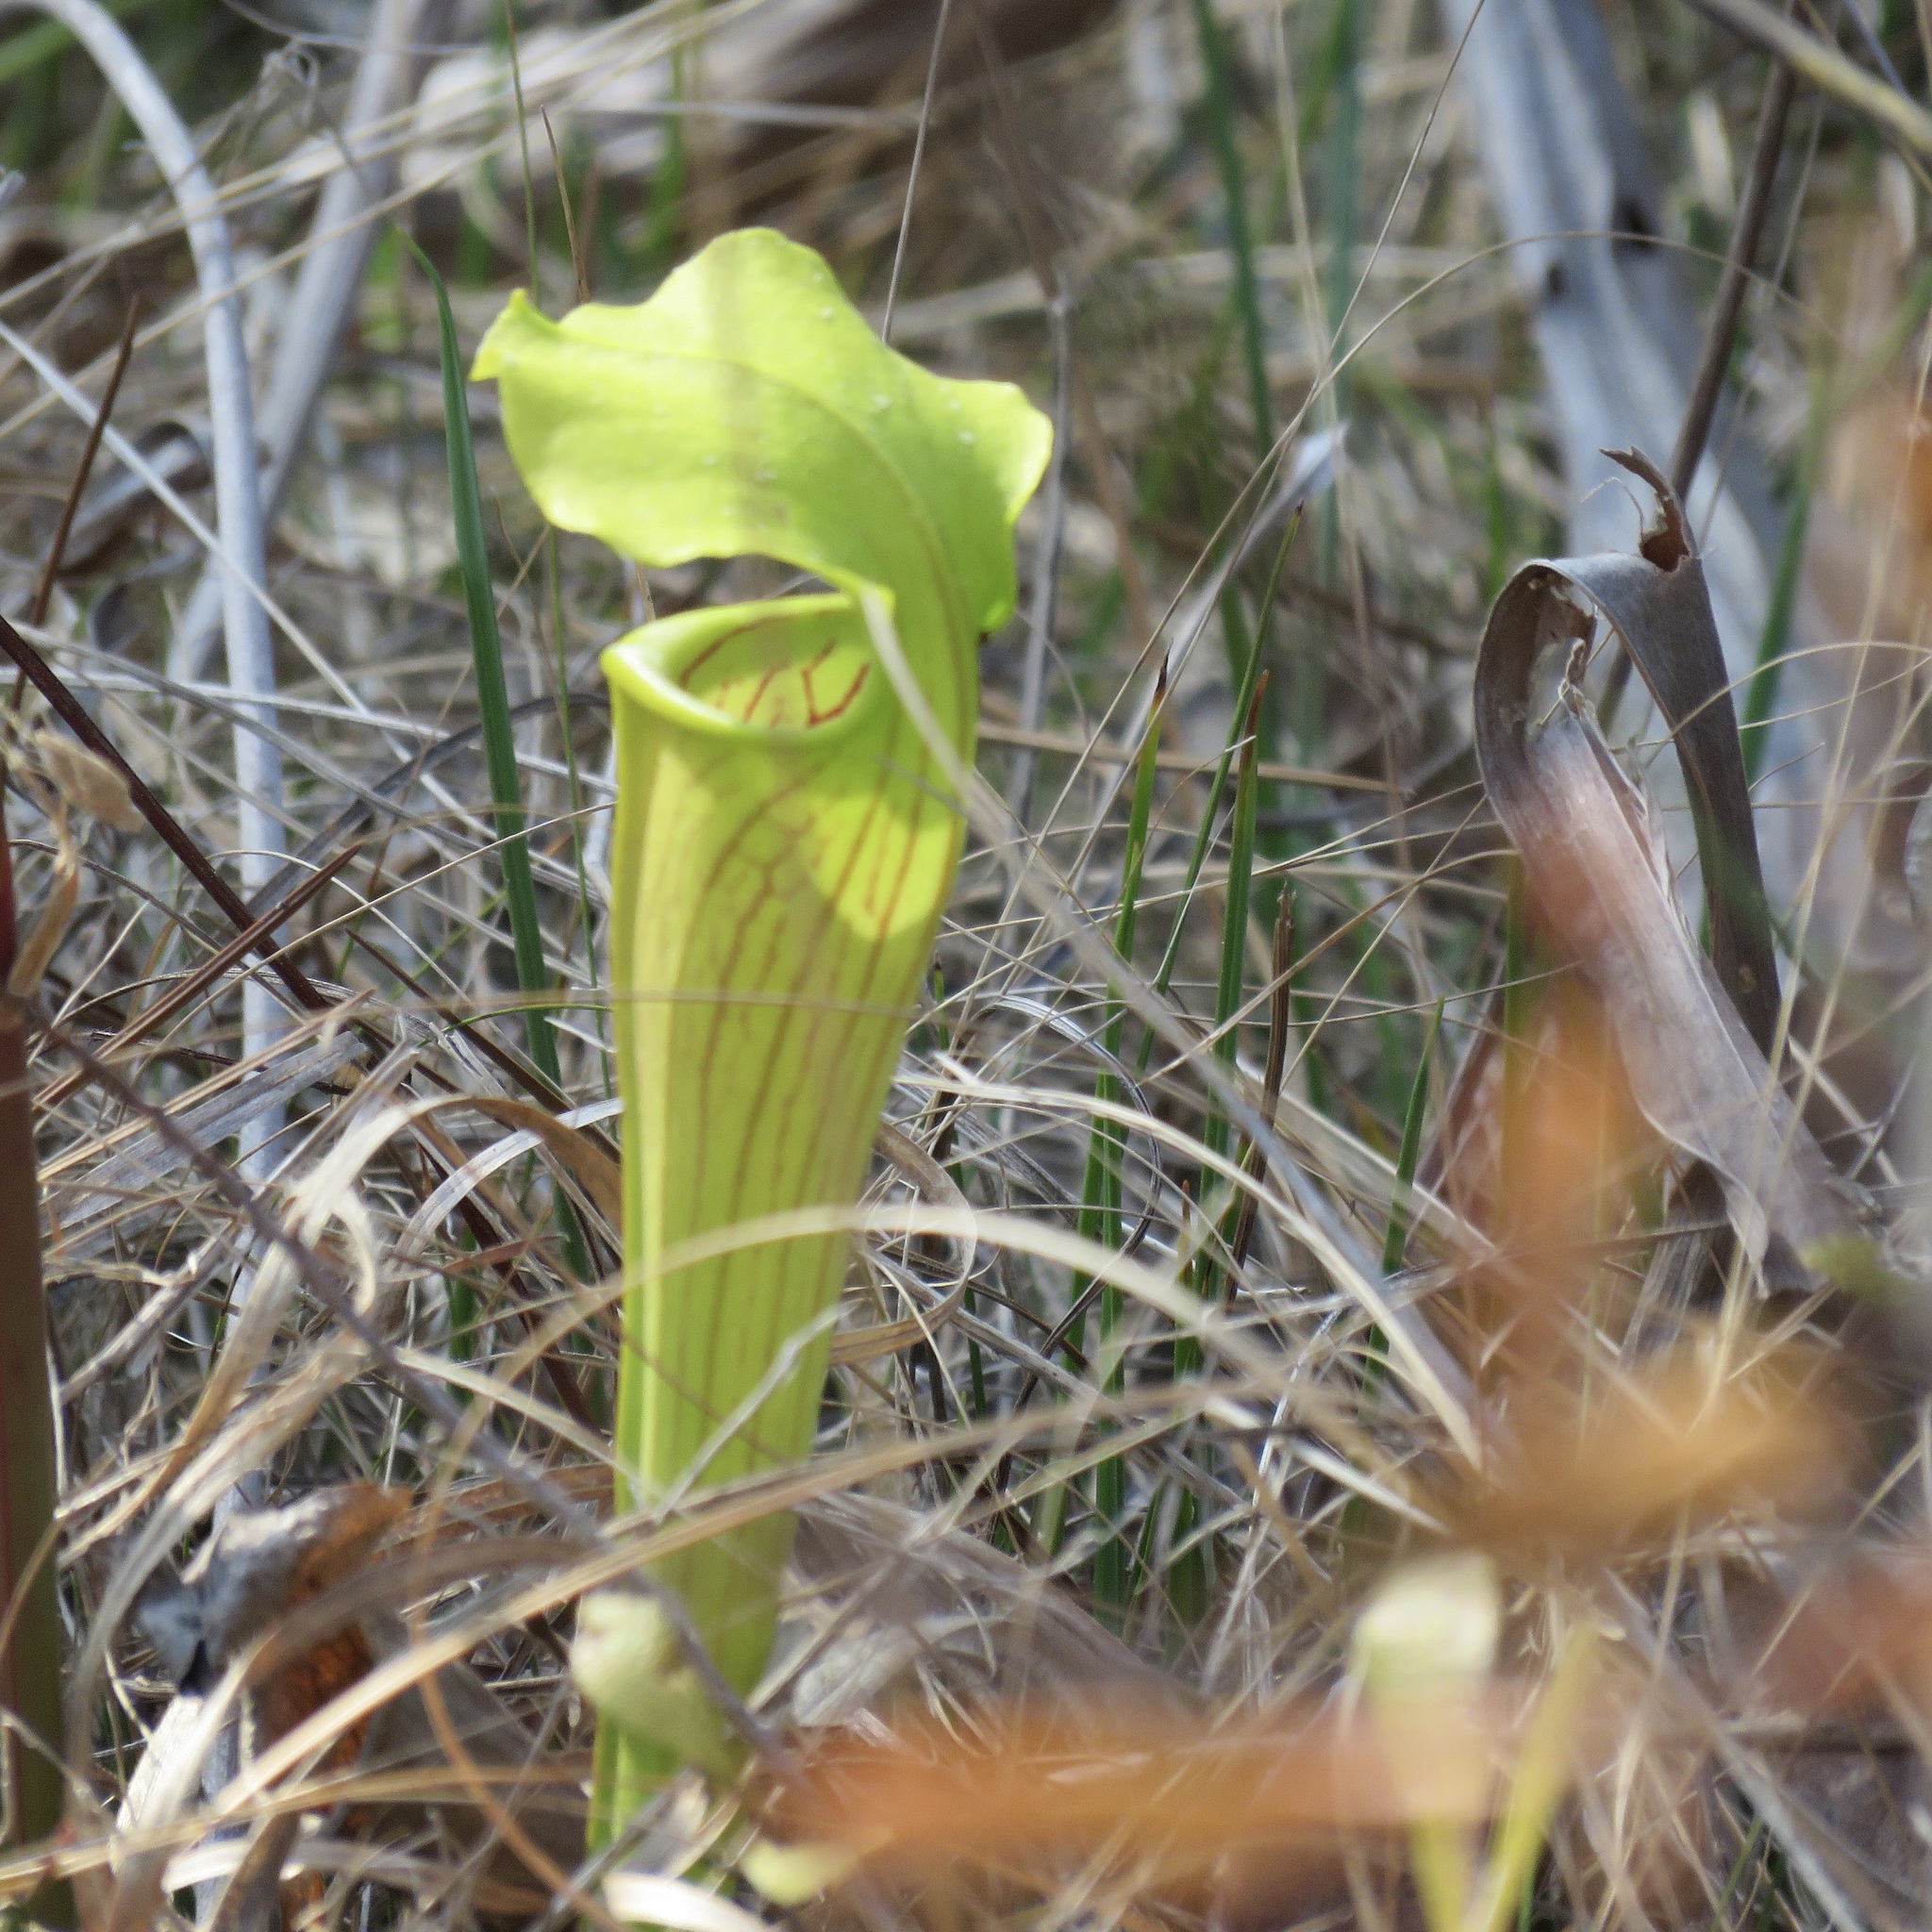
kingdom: Plantae
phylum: Tracheophyta
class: Magnoliopsida
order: Ericales
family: Sarraceniaceae
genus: Sarracenia
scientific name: Sarracenia alata
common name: Yellow trumpets
